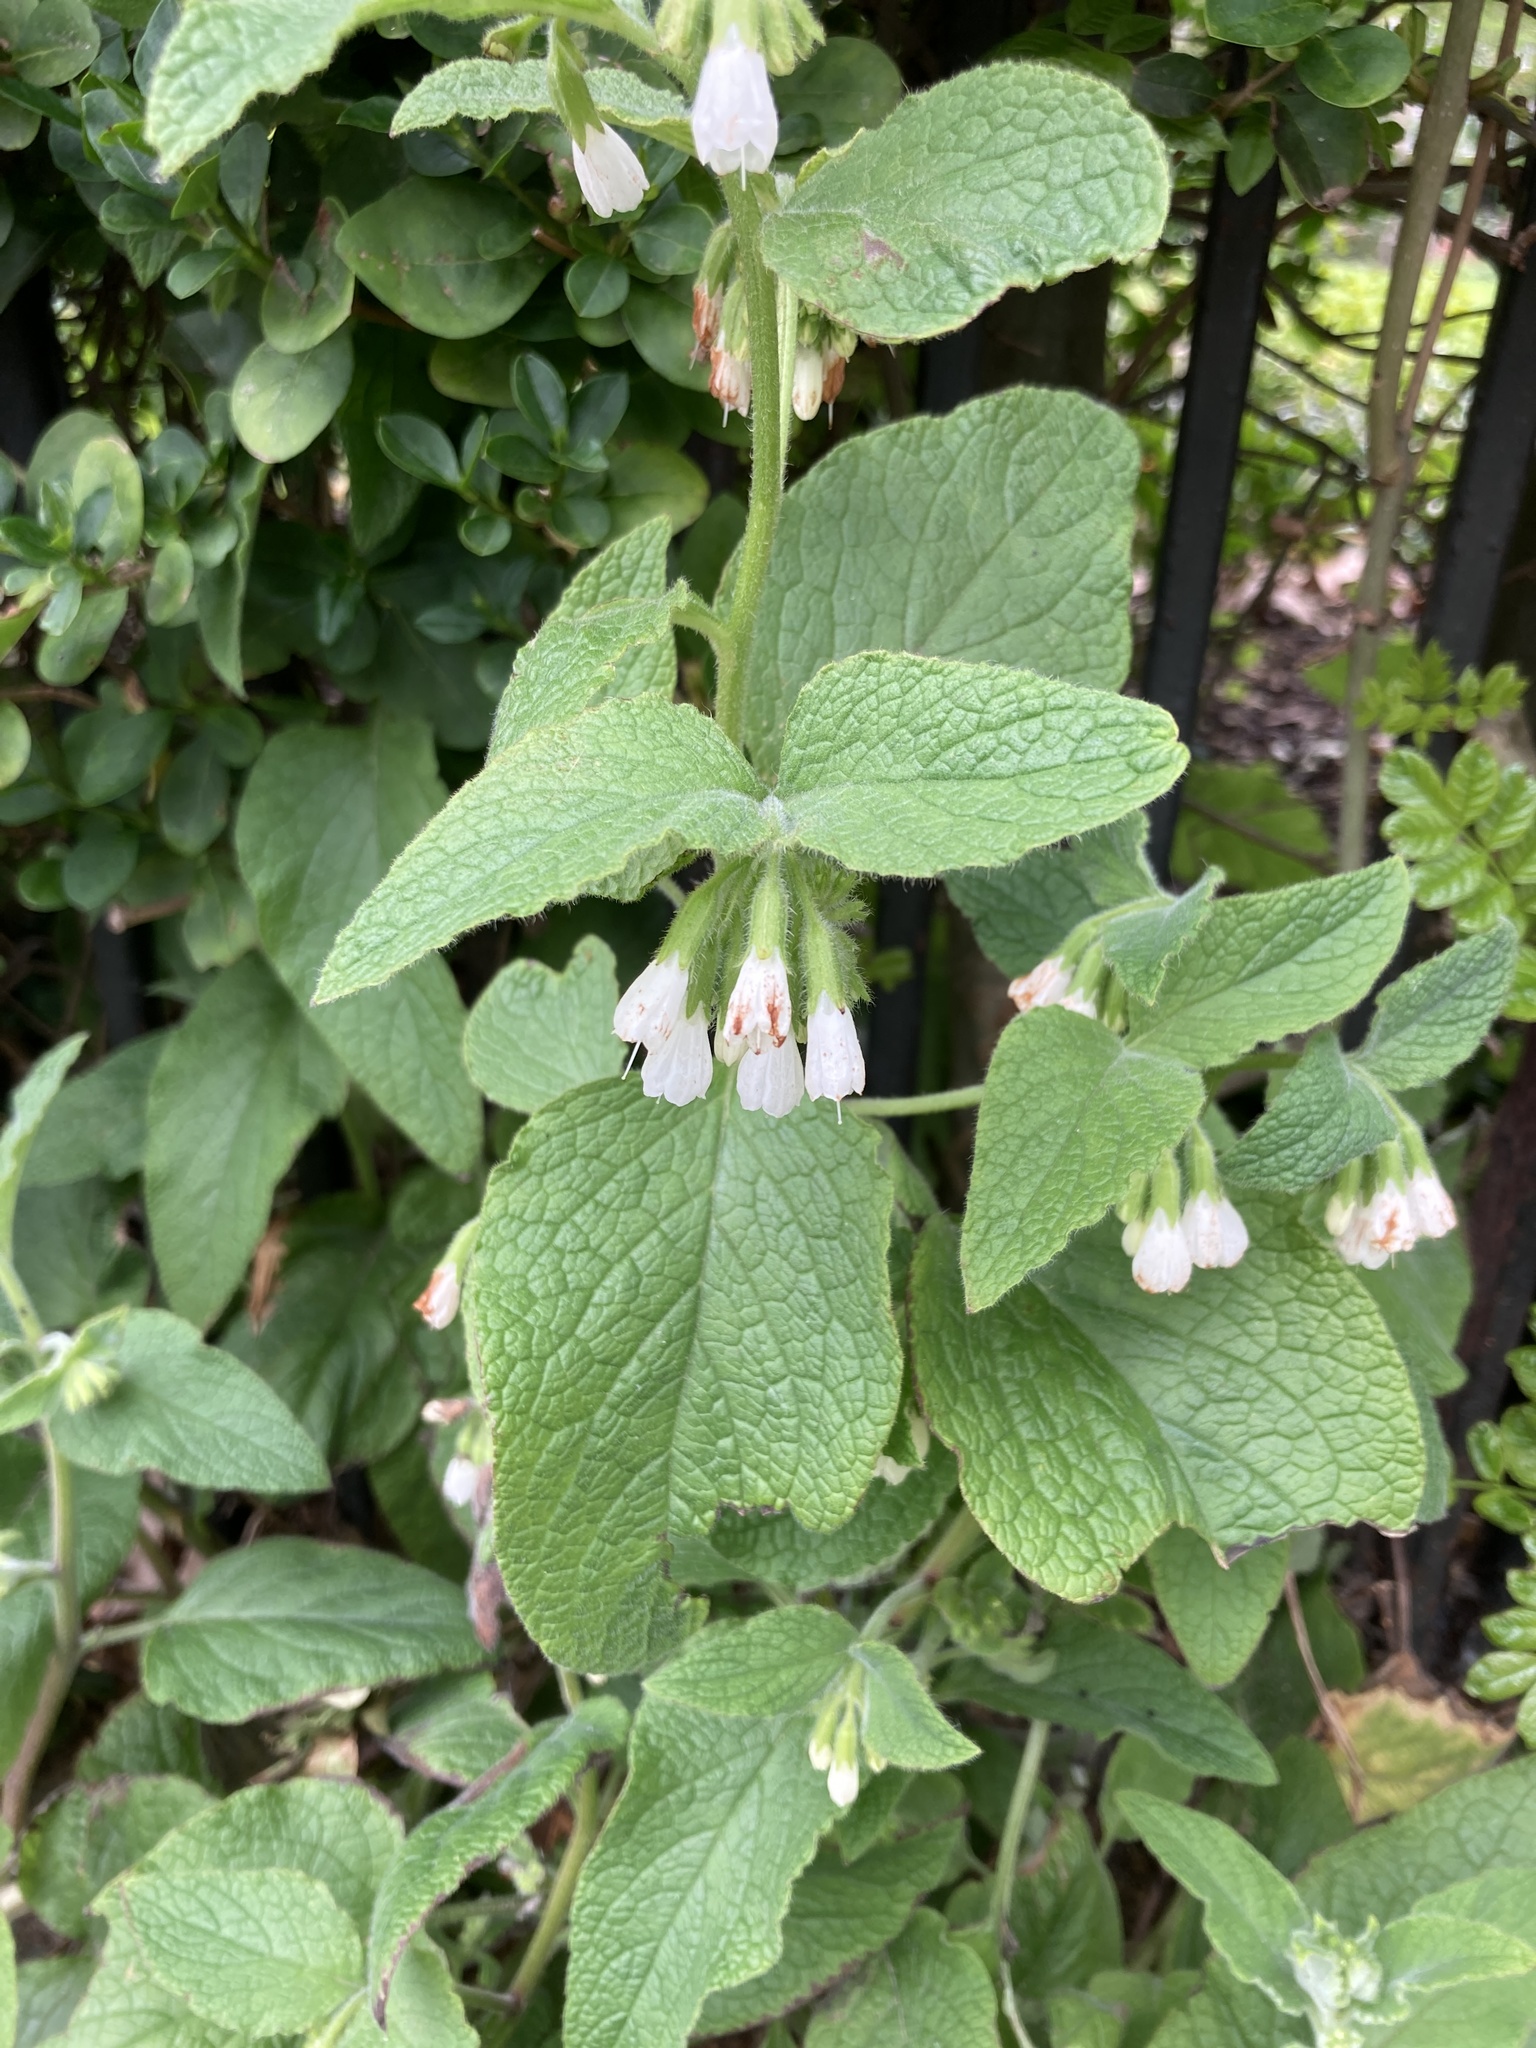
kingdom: Plantae
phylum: Tracheophyta
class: Magnoliopsida
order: Boraginales
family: Boraginaceae
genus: Symphytum
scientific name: Symphytum orientale
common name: White comfrey
